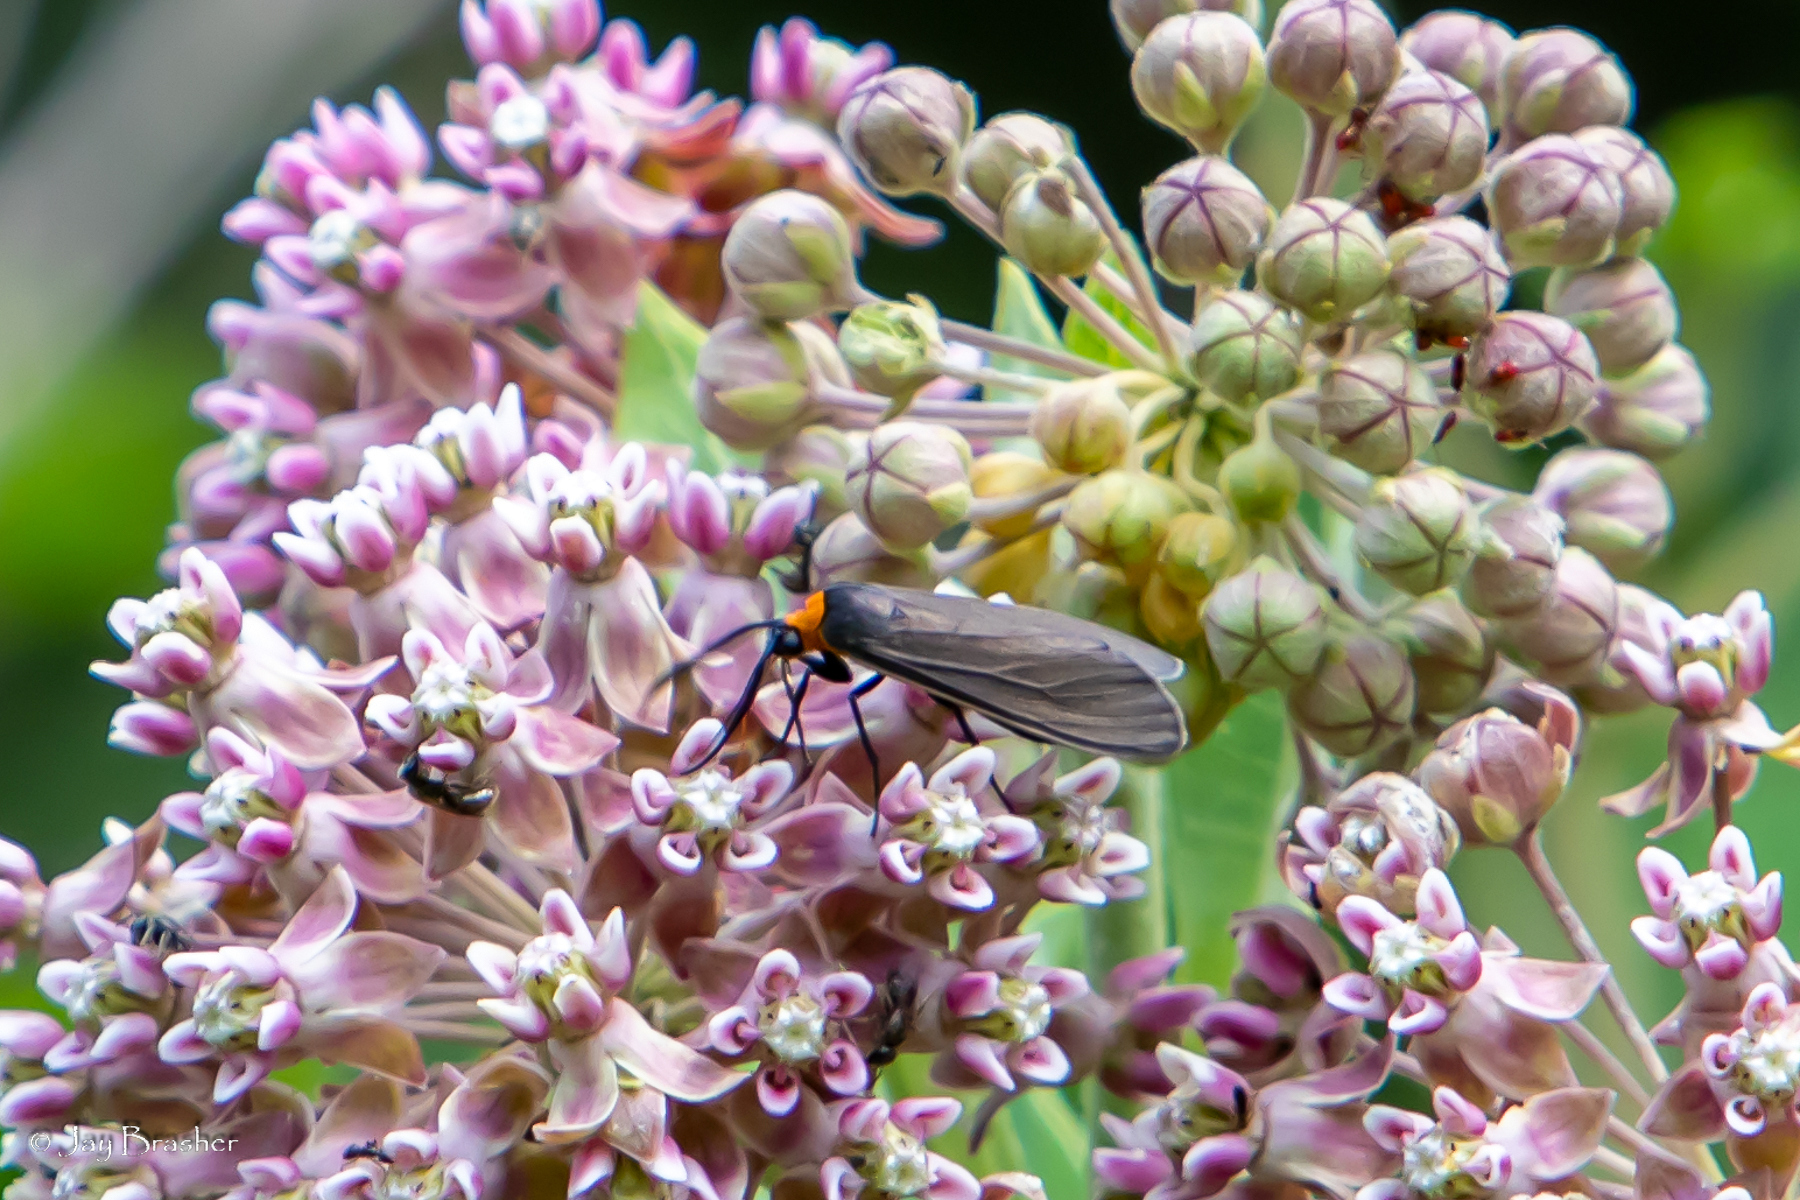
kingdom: Animalia
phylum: Arthropoda
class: Insecta
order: Lepidoptera
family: Erebidae
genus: Cisseps
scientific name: Cisseps fulvicollis
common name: Yellow-collared scape moth
